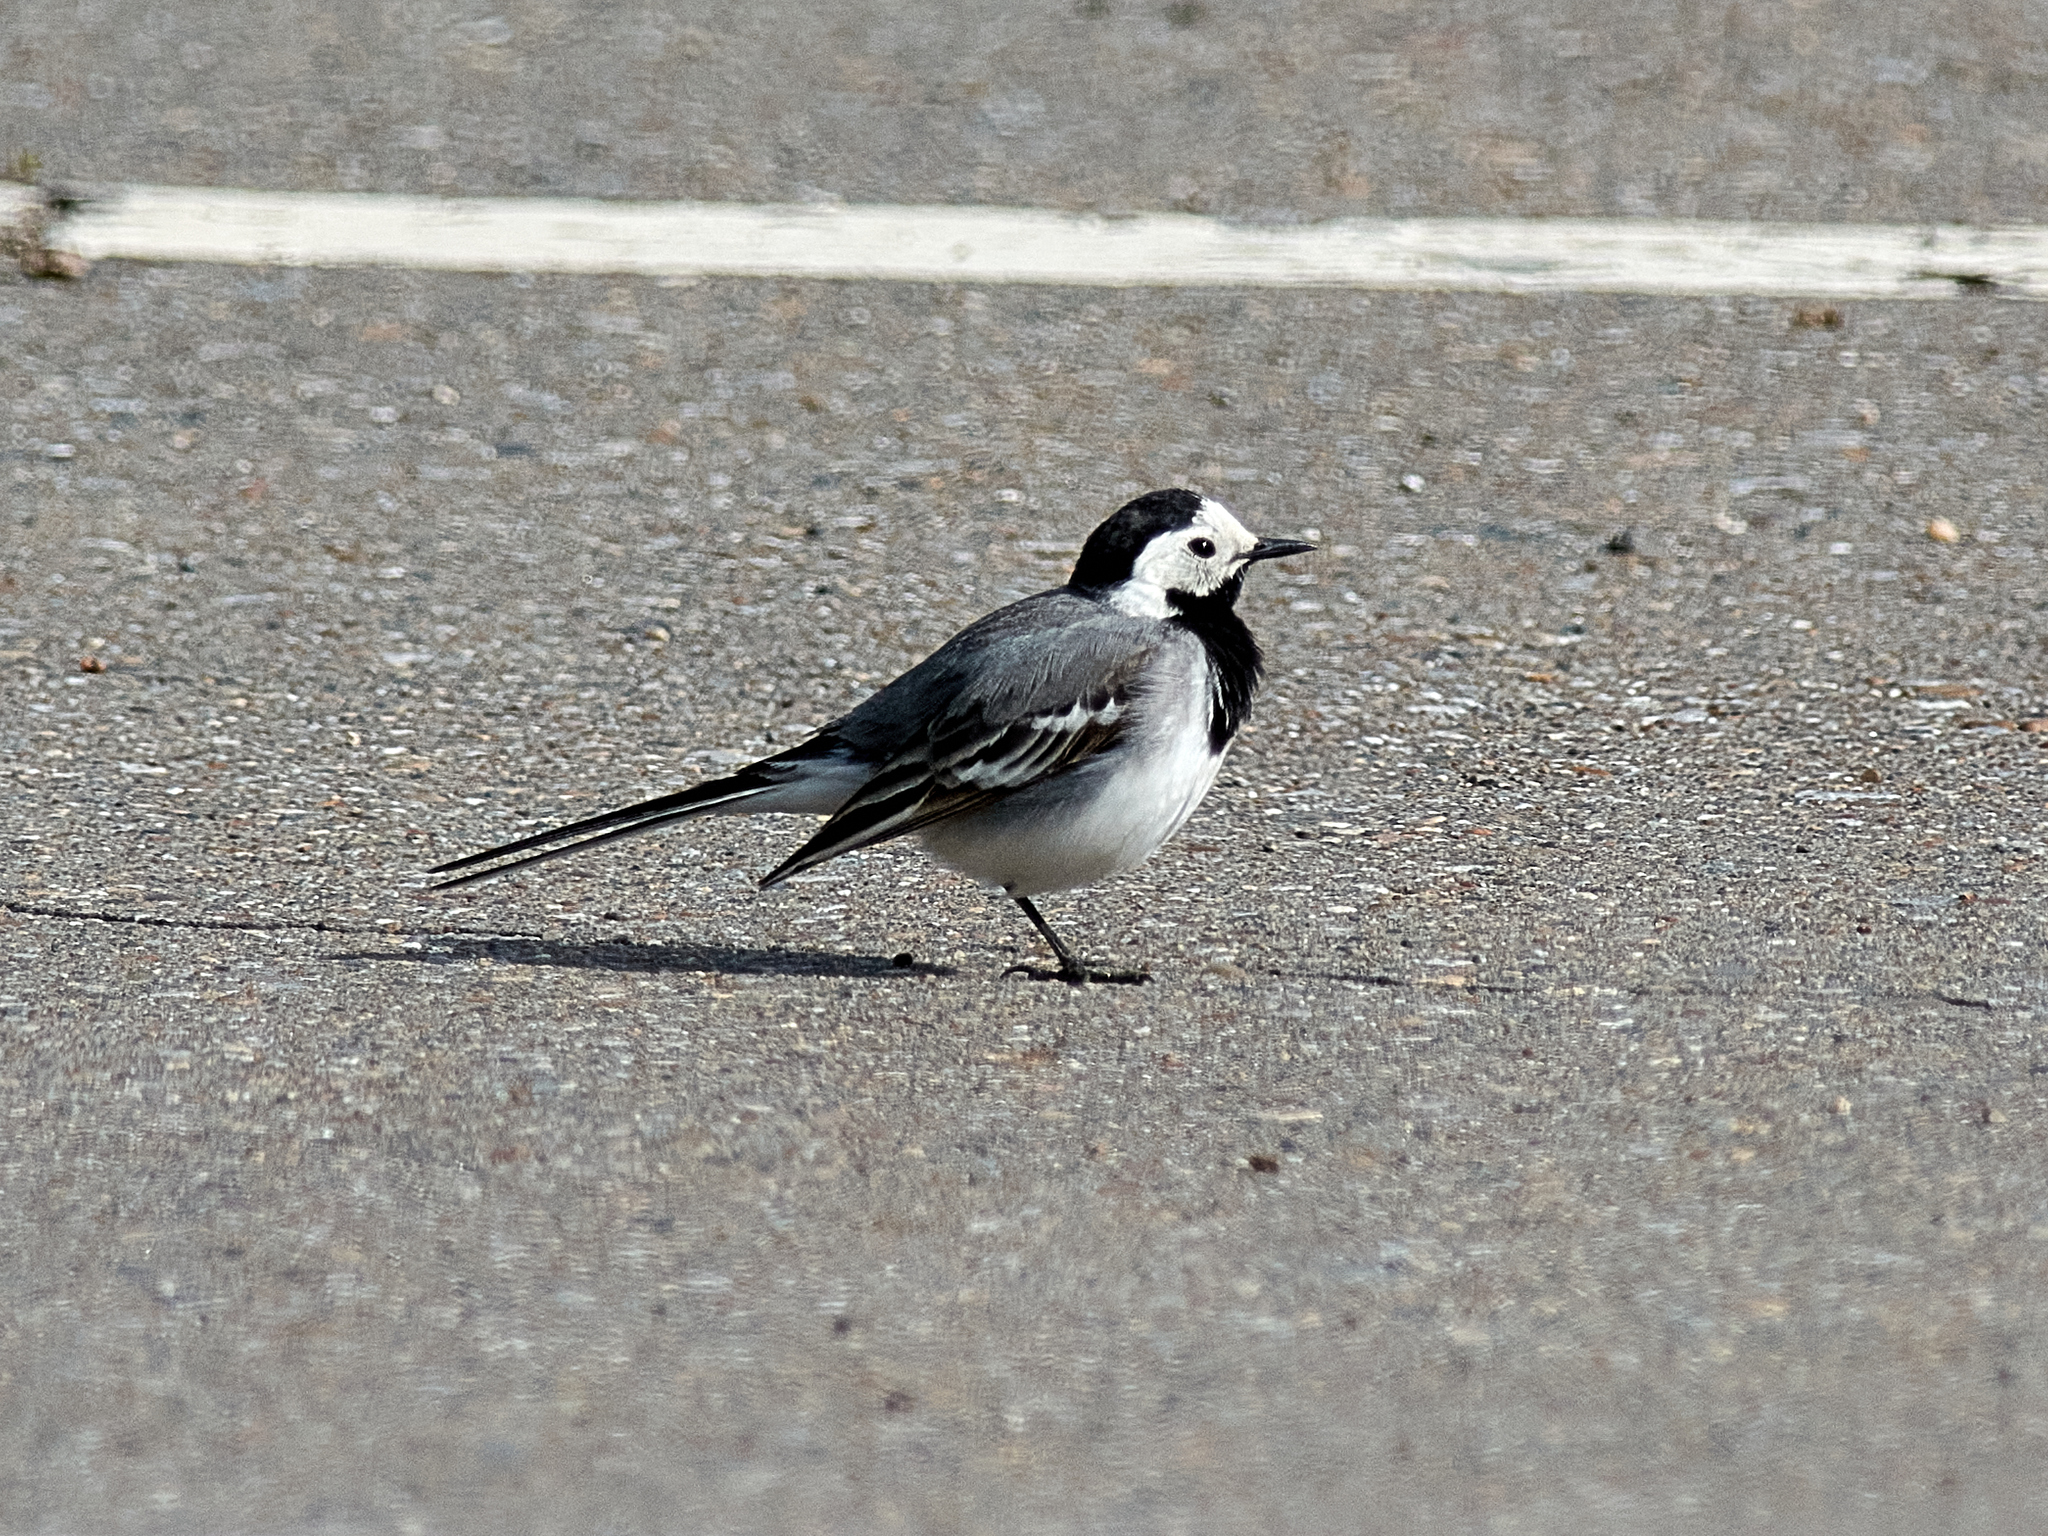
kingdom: Animalia
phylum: Chordata
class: Aves
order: Passeriformes
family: Motacillidae
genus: Motacilla
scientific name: Motacilla alba
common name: White wagtail
